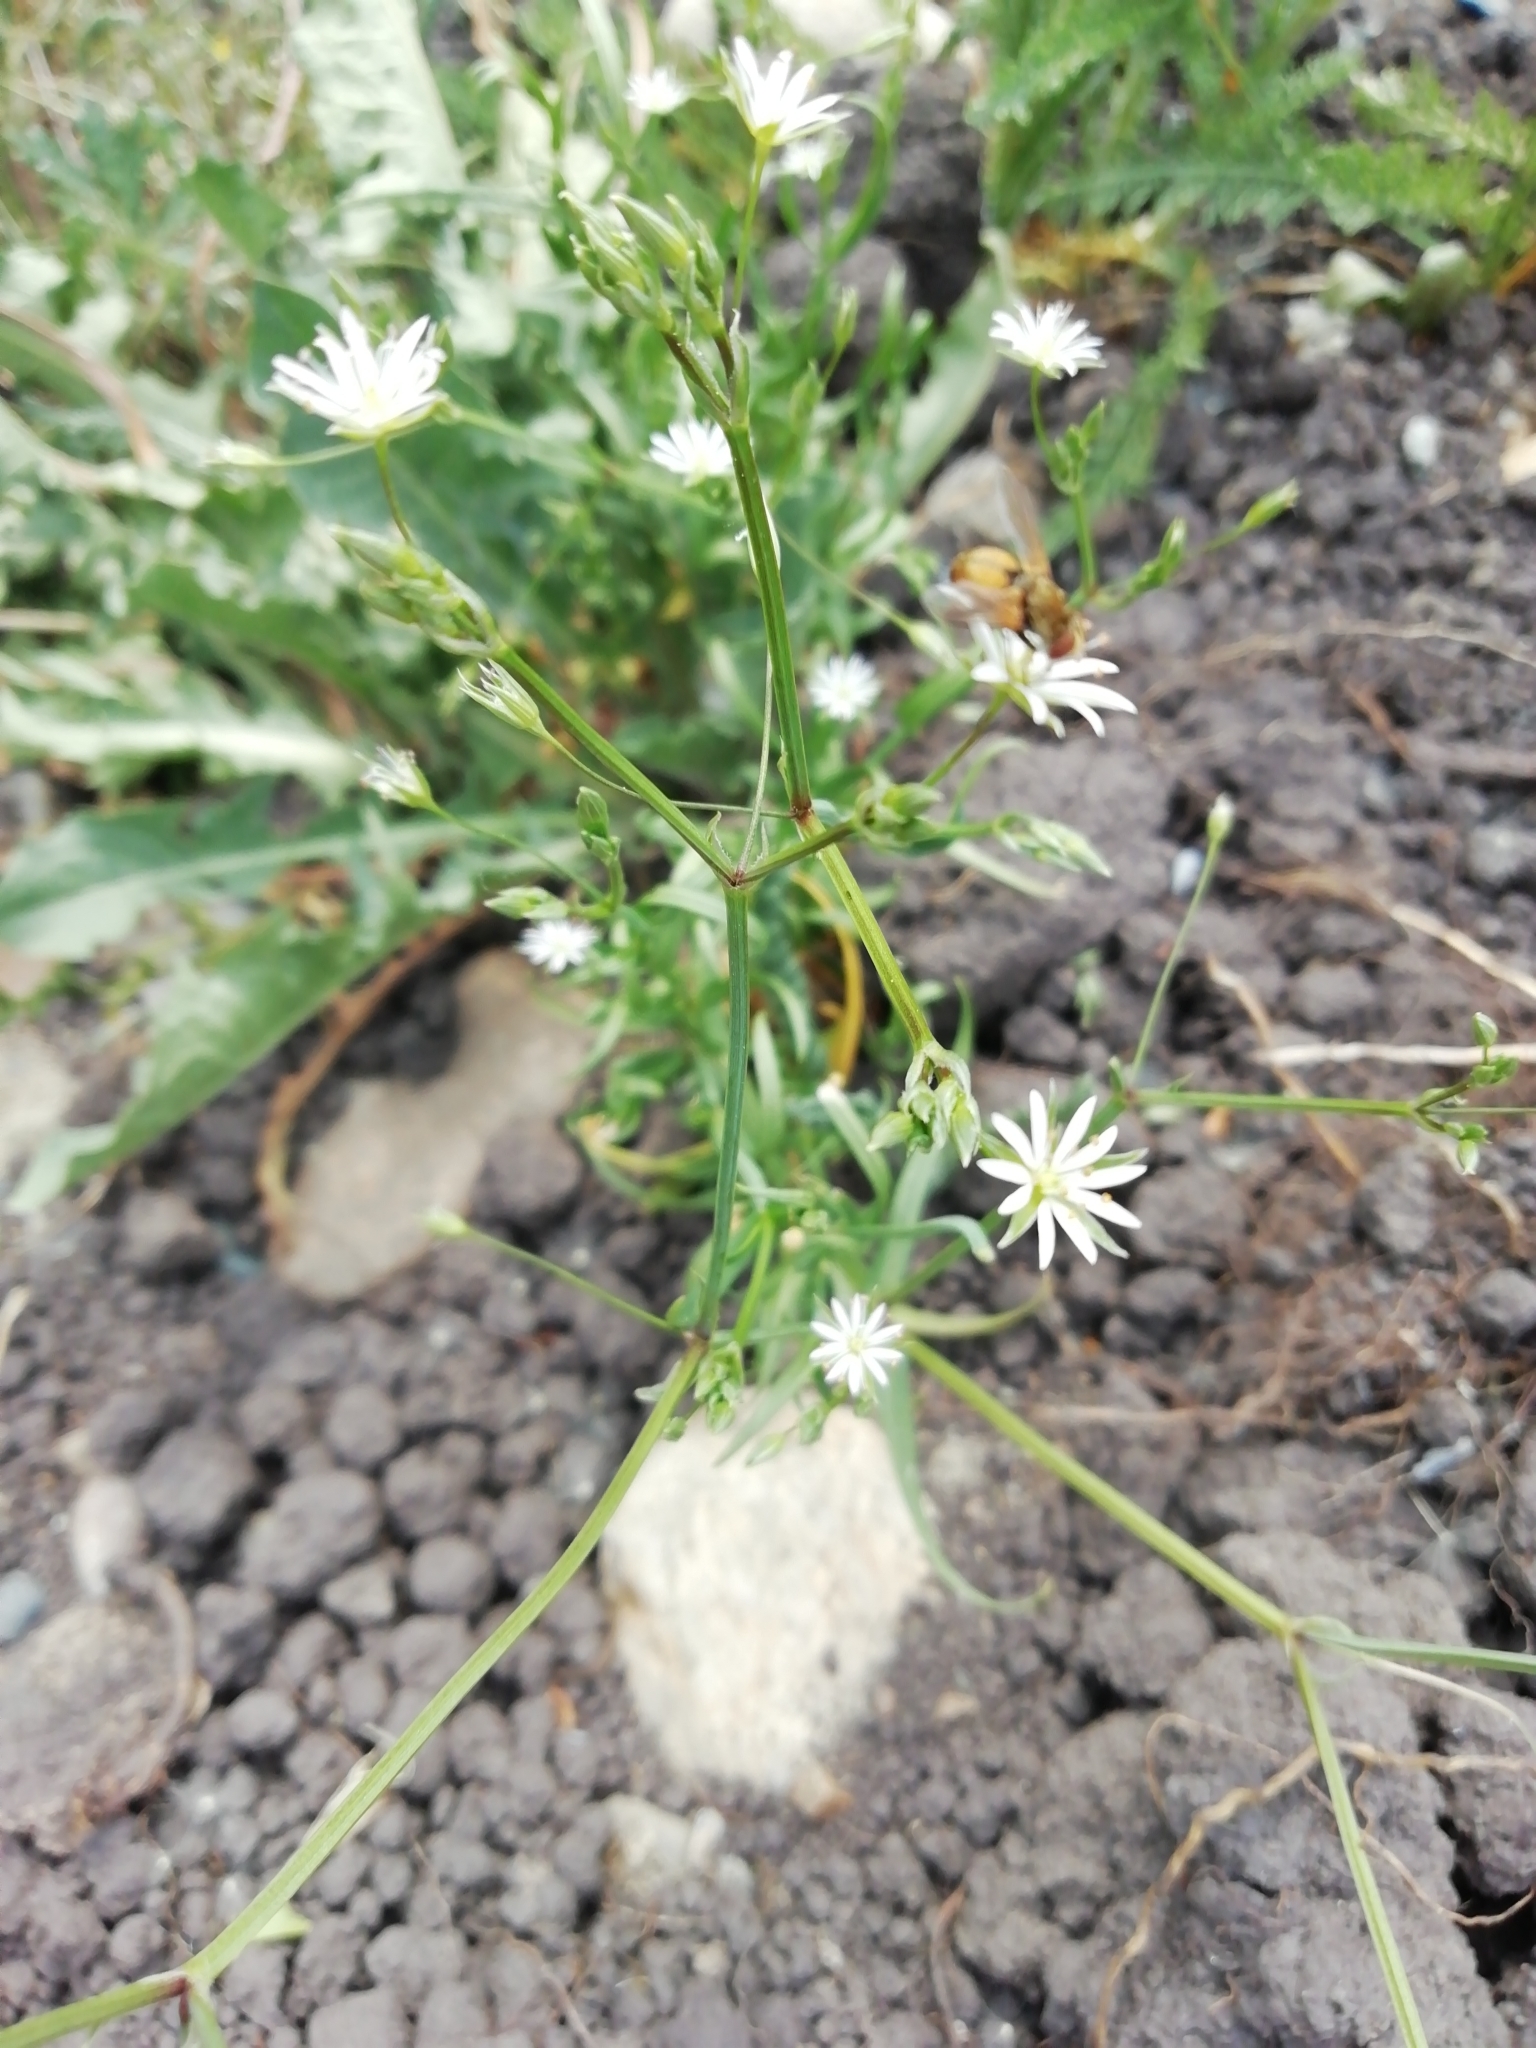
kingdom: Plantae
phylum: Tracheophyta
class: Magnoliopsida
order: Caryophyllales
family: Caryophyllaceae
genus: Stellaria
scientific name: Stellaria graminea
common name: Grass-like starwort
